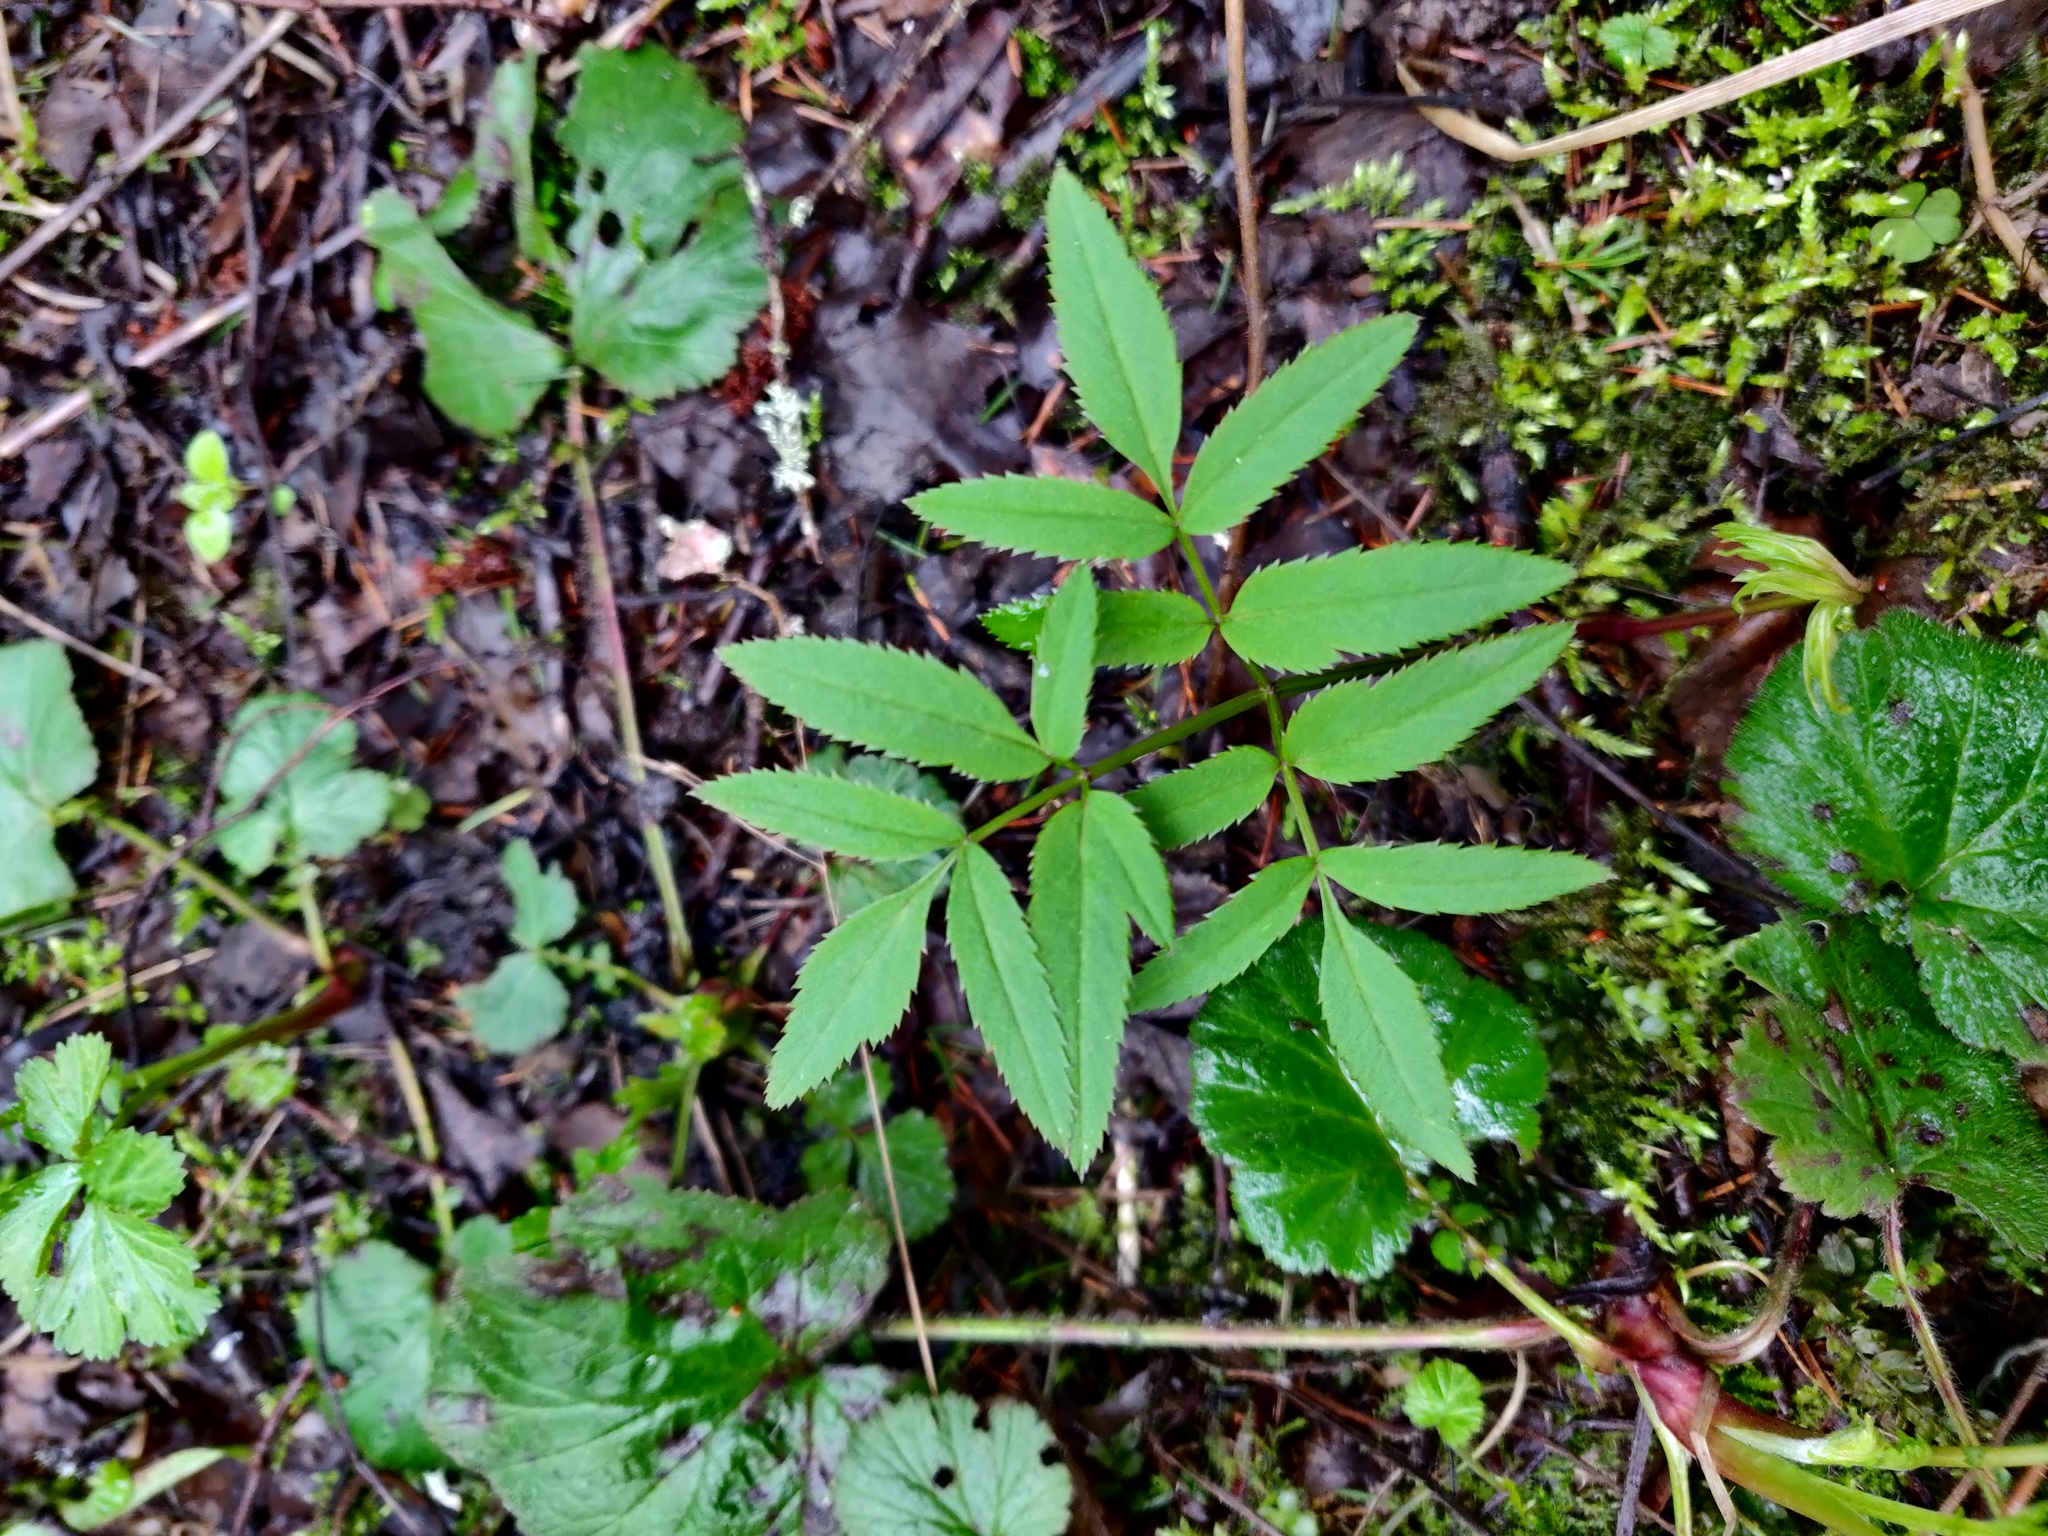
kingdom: Plantae
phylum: Tracheophyta
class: Magnoliopsida
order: Apiales
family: Apiaceae
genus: Angelica
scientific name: Angelica sylvestris
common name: Wild angelica
